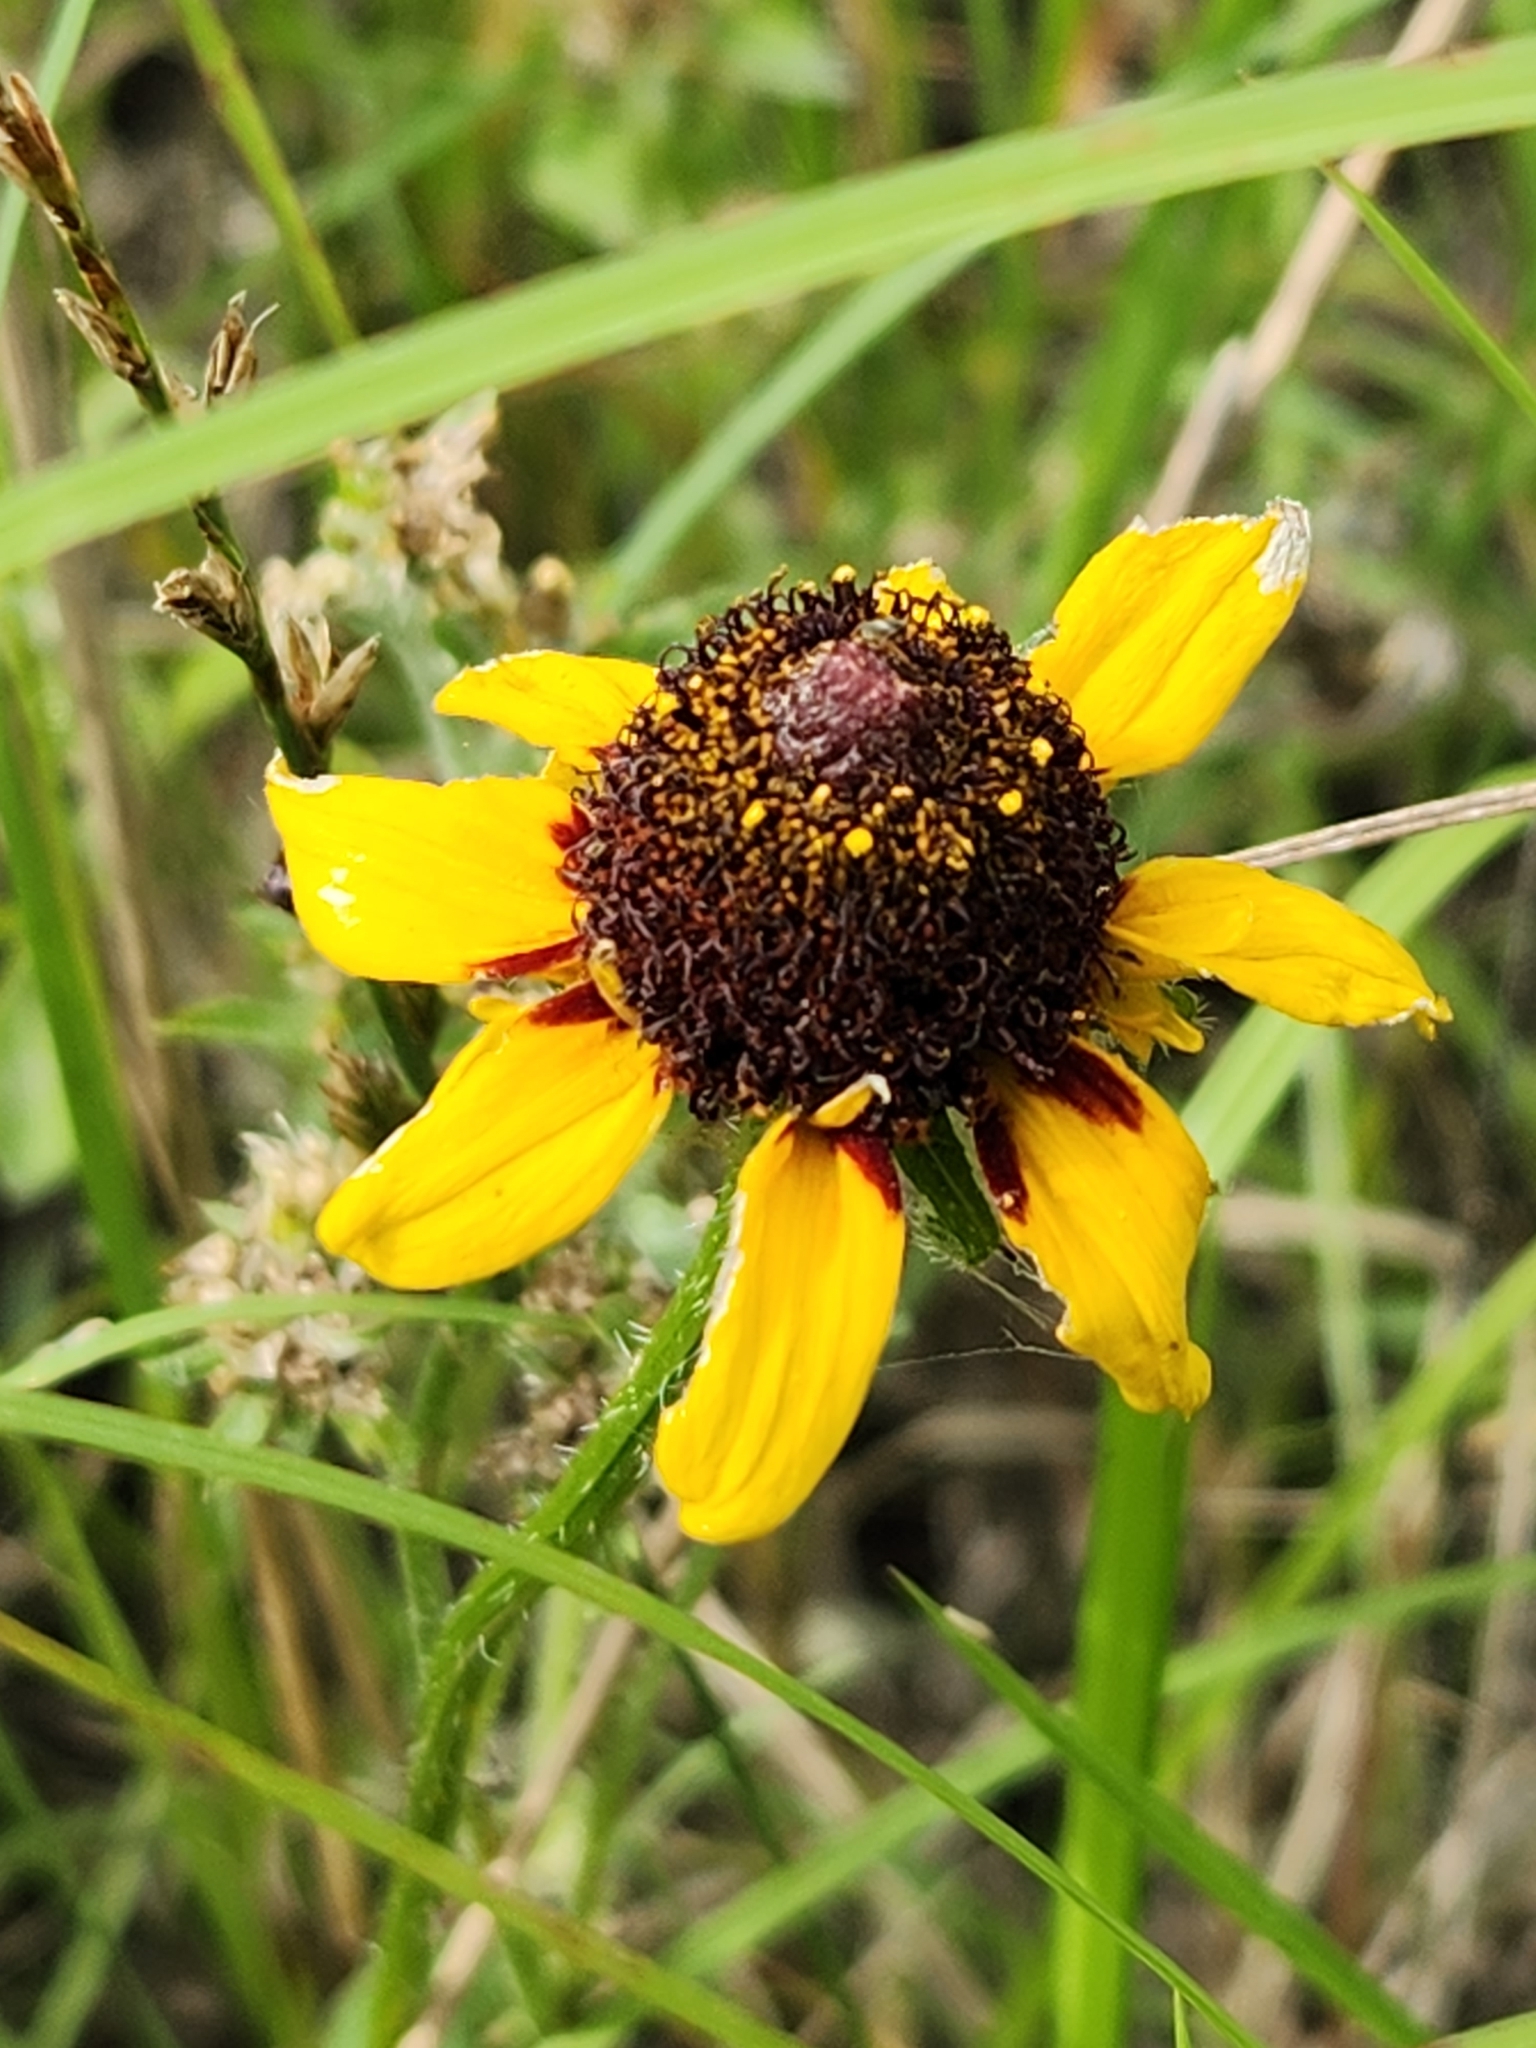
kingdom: Plantae
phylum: Tracheophyta
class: Magnoliopsida
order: Asterales
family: Asteraceae
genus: Rudbeckia
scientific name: Rudbeckia hirta
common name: Black-eyed-susan
